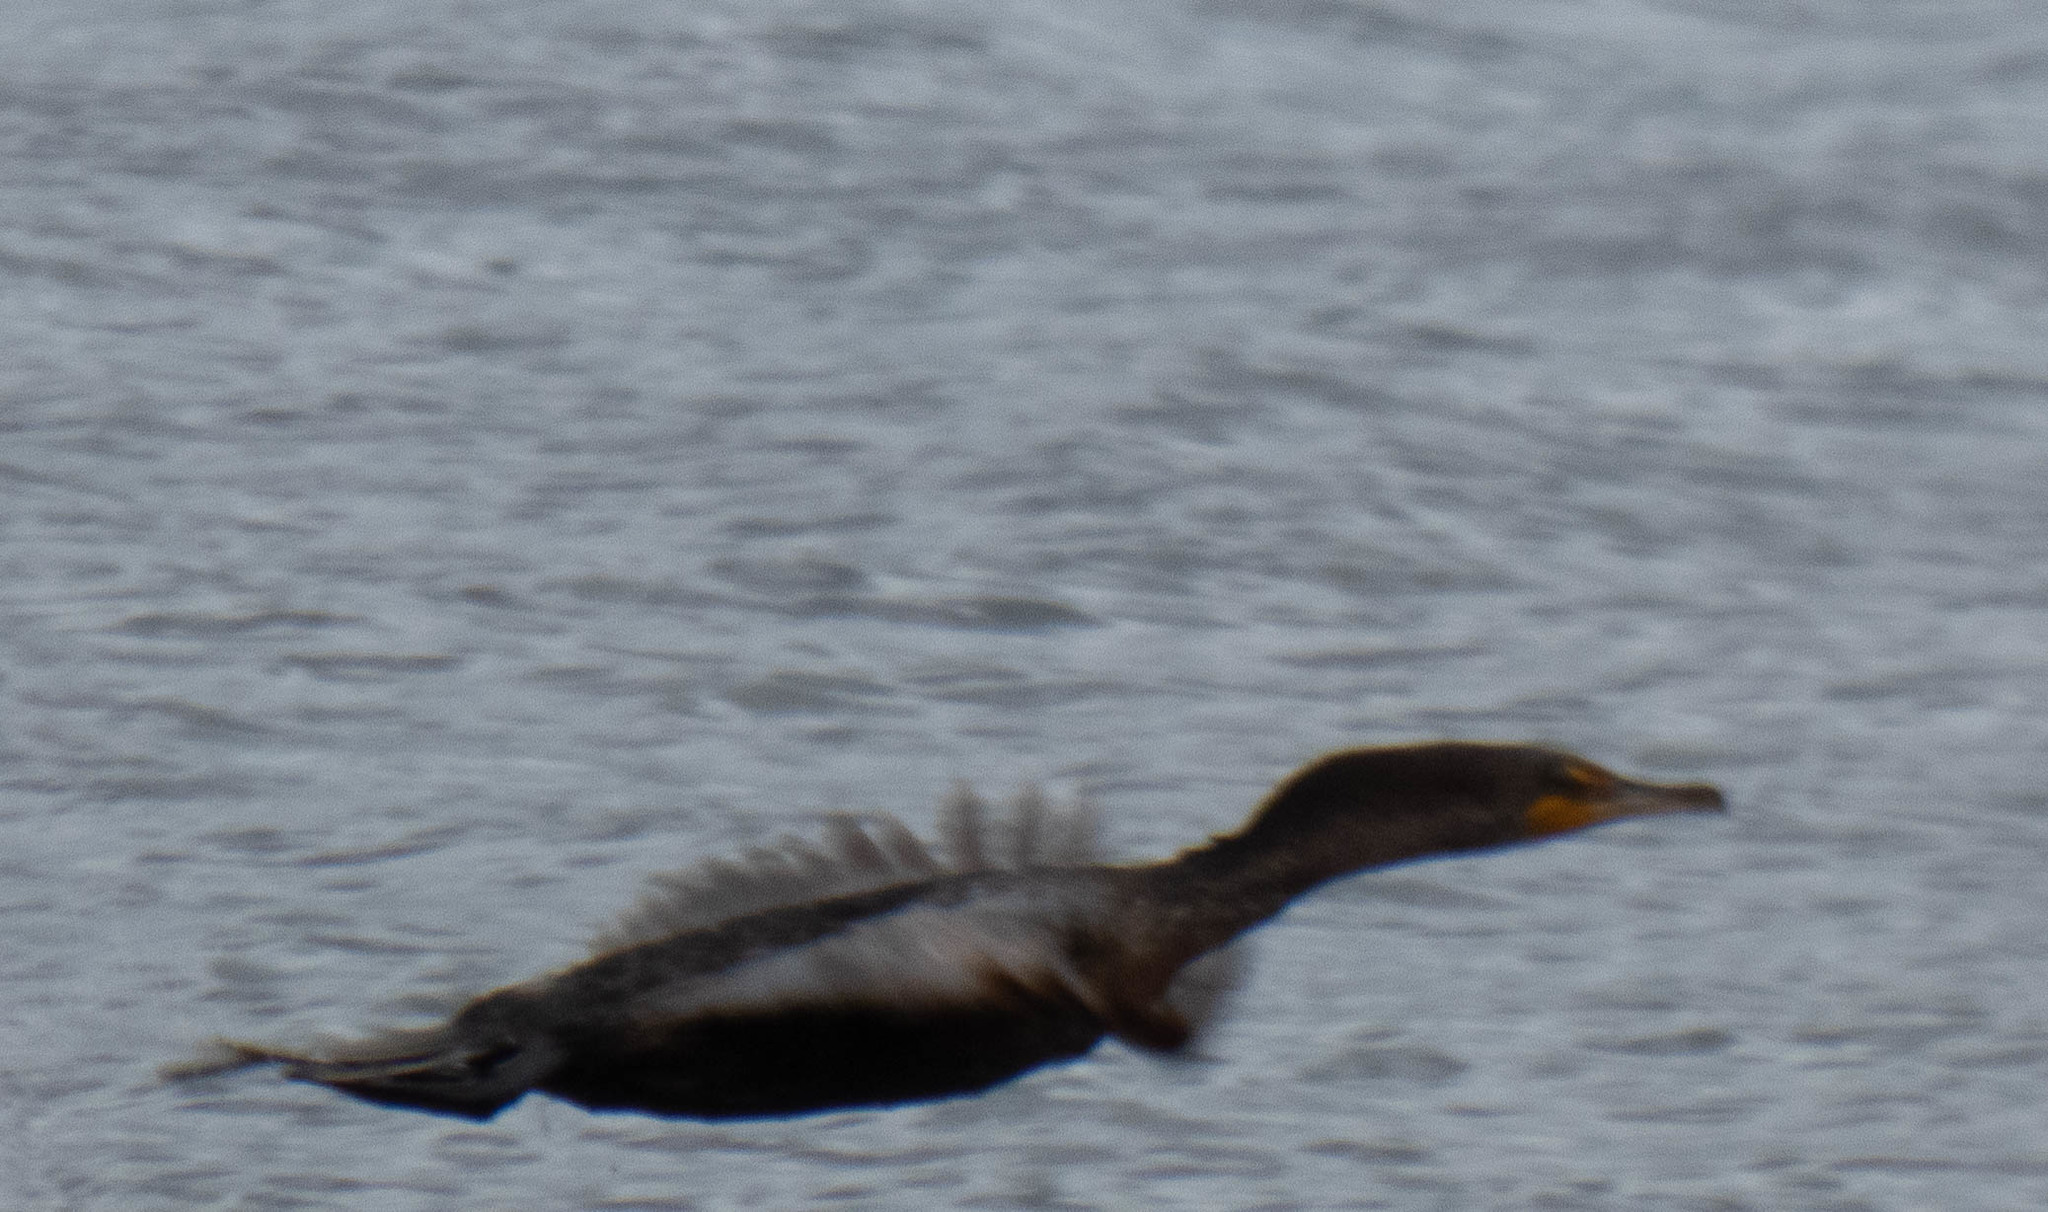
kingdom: Animalia
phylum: Chordata
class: Aves
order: Suliformes
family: Phalacrocoracidae
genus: Phalacrocorax
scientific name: Phalacrocorax auritus
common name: Double-crested cormorant
